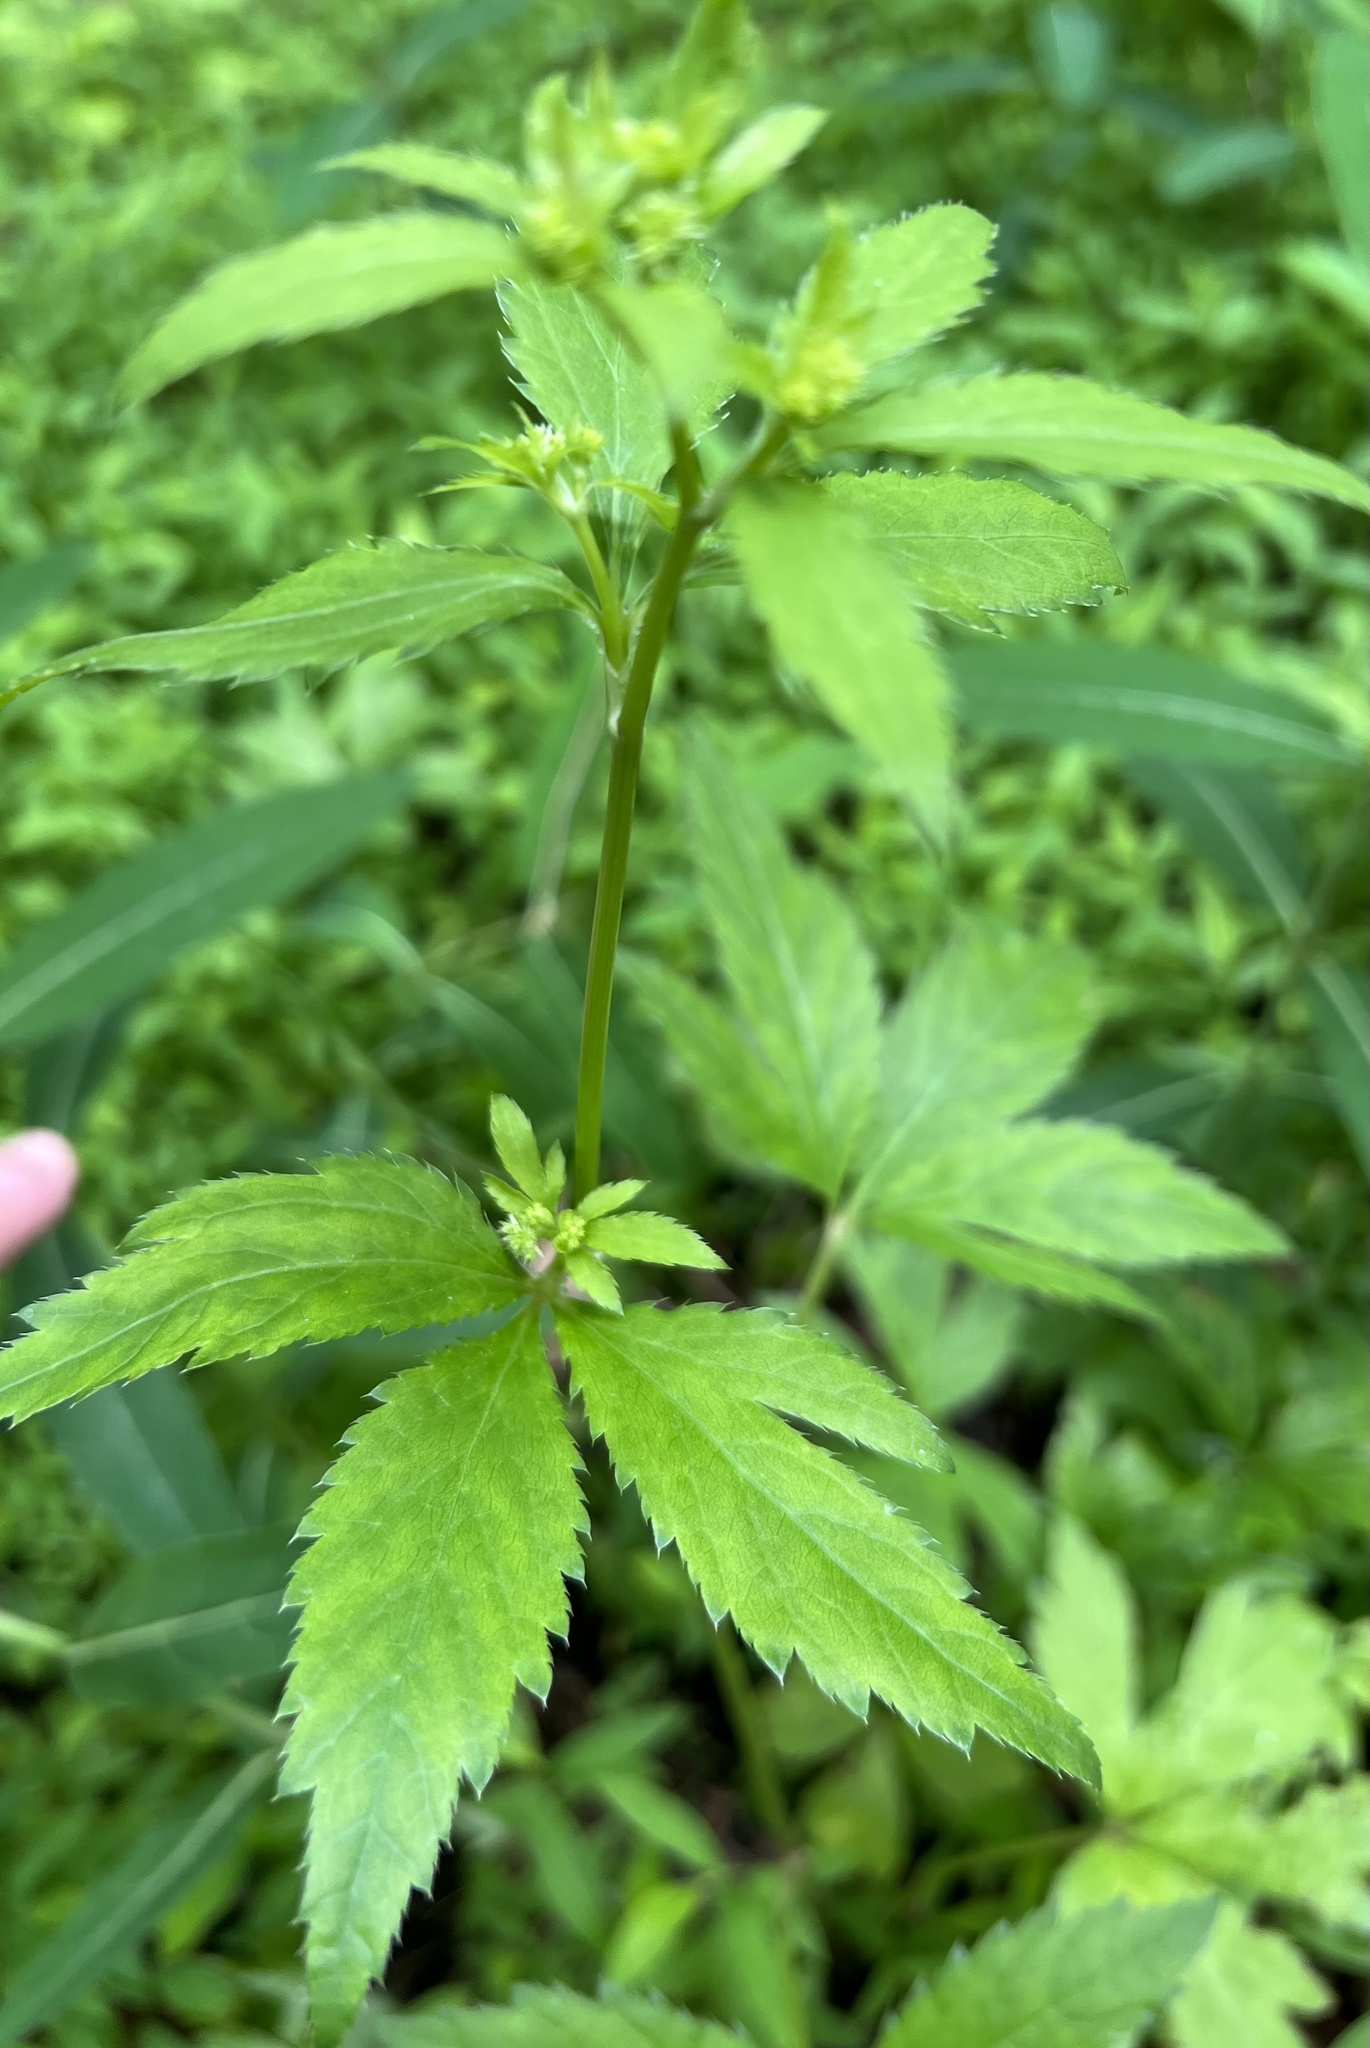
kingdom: Plantae
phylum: Tracheophyta
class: Magnoliopsida
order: Apiales
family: Apiaceae
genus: Sanicula
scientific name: Sanicula canadensis
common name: Canada sanicle
